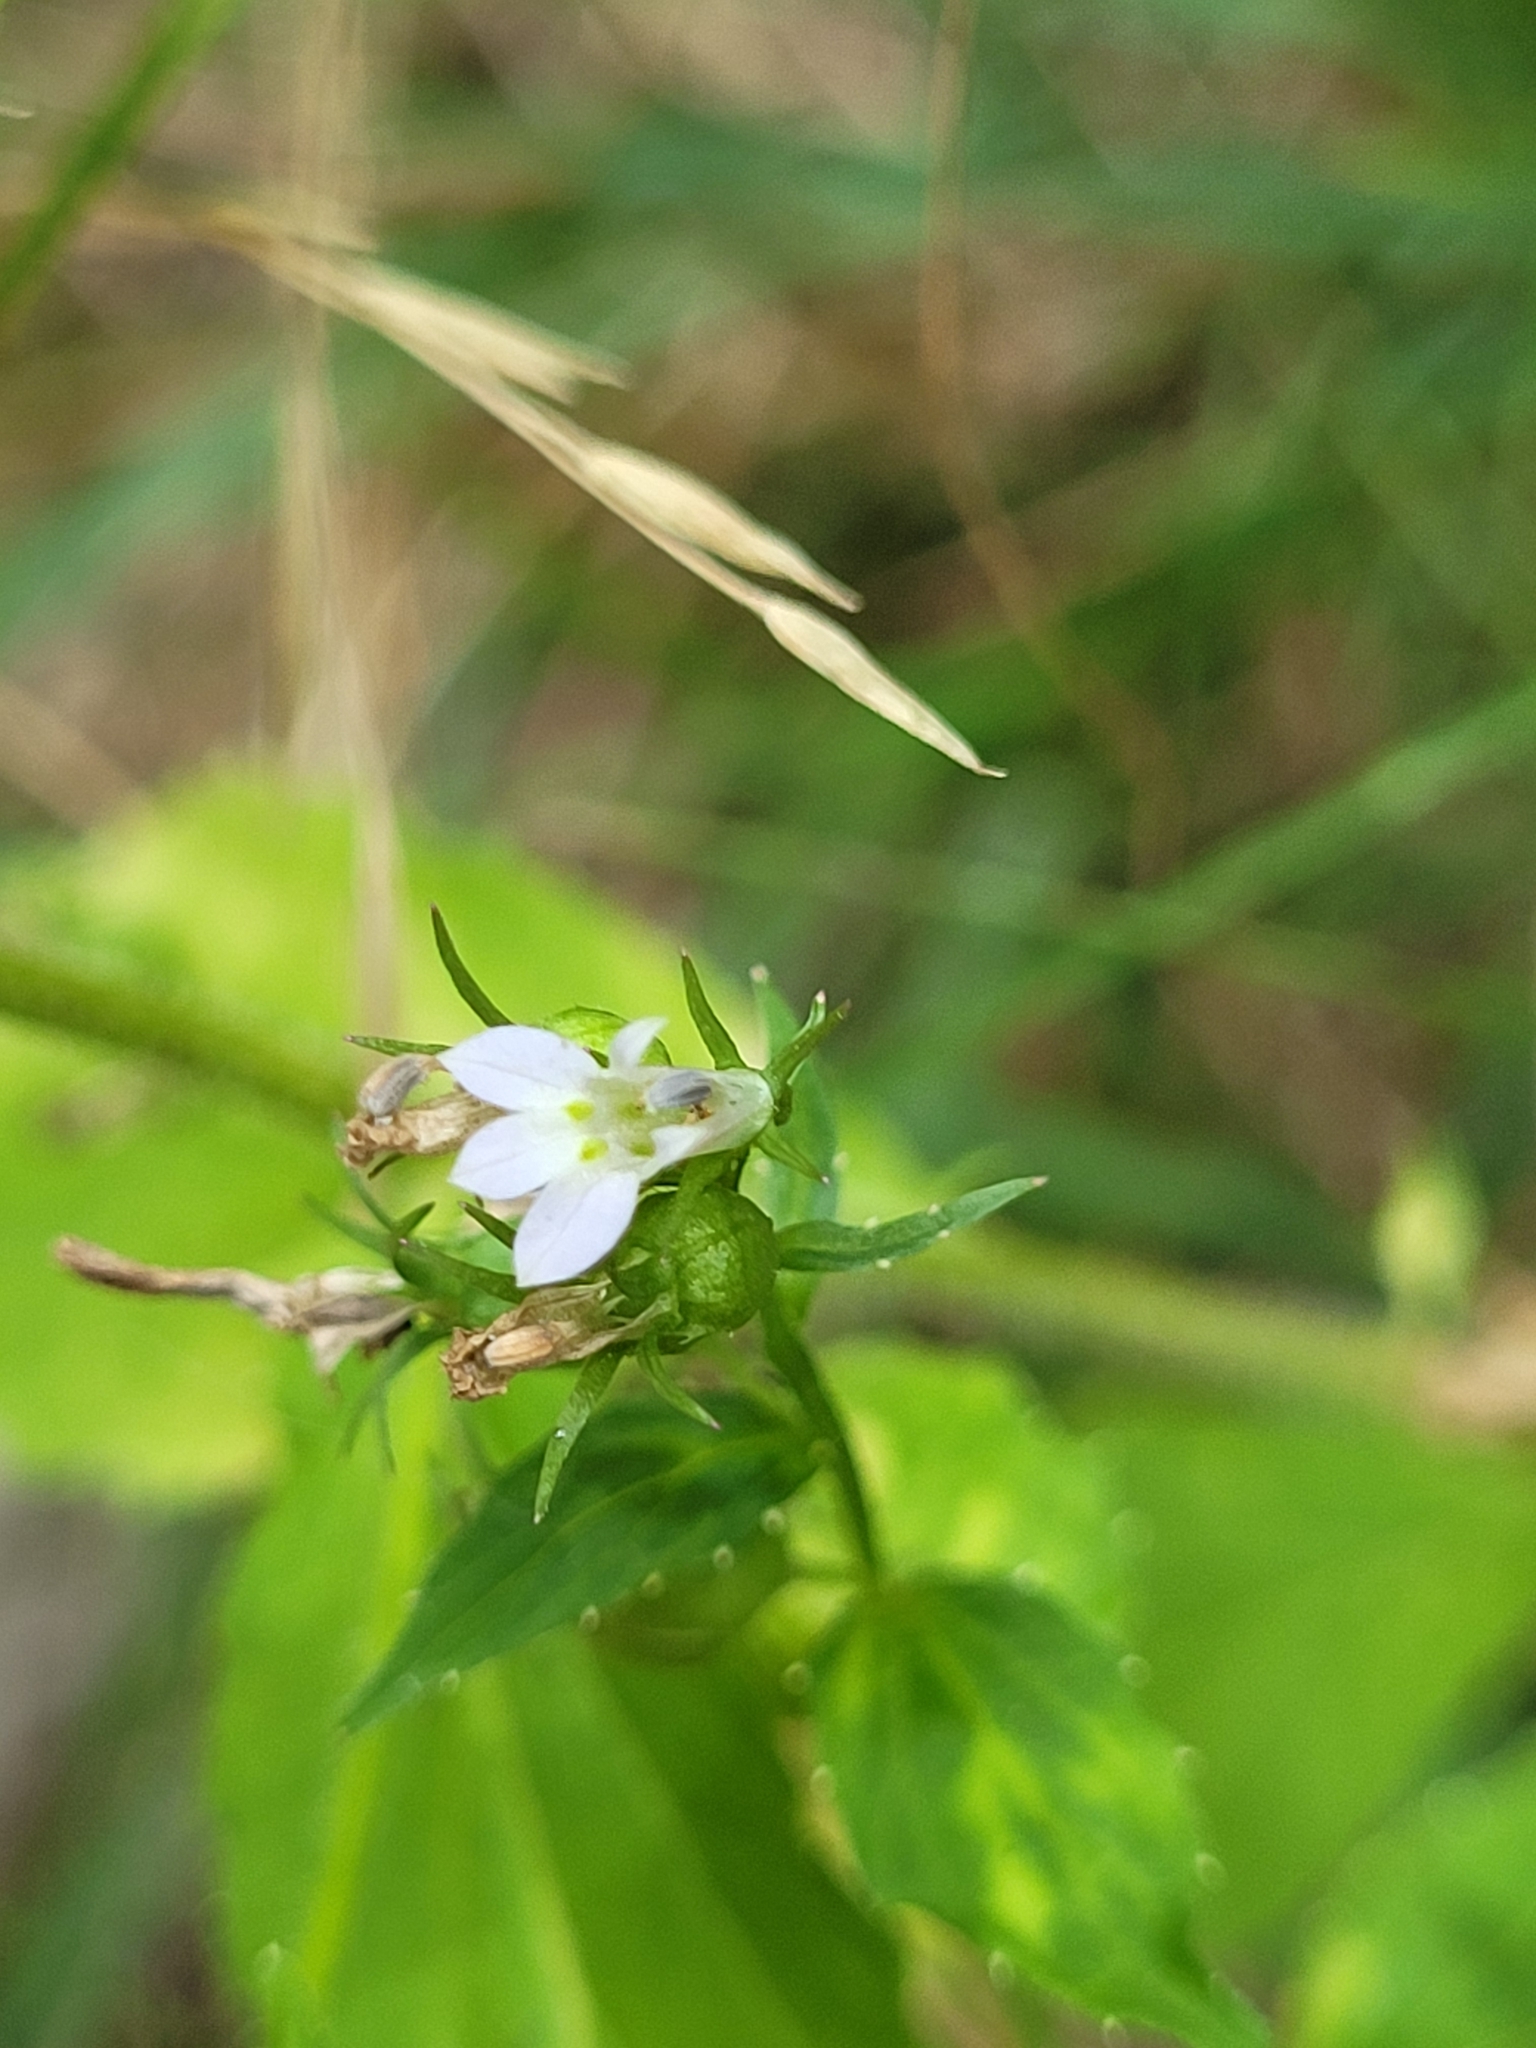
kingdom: Plantae
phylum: Tracheophyta
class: Magnoliopsida
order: Asterales
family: Campanulaceae
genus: Lobelia
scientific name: Lobelia inflata
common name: Indian tobacco
